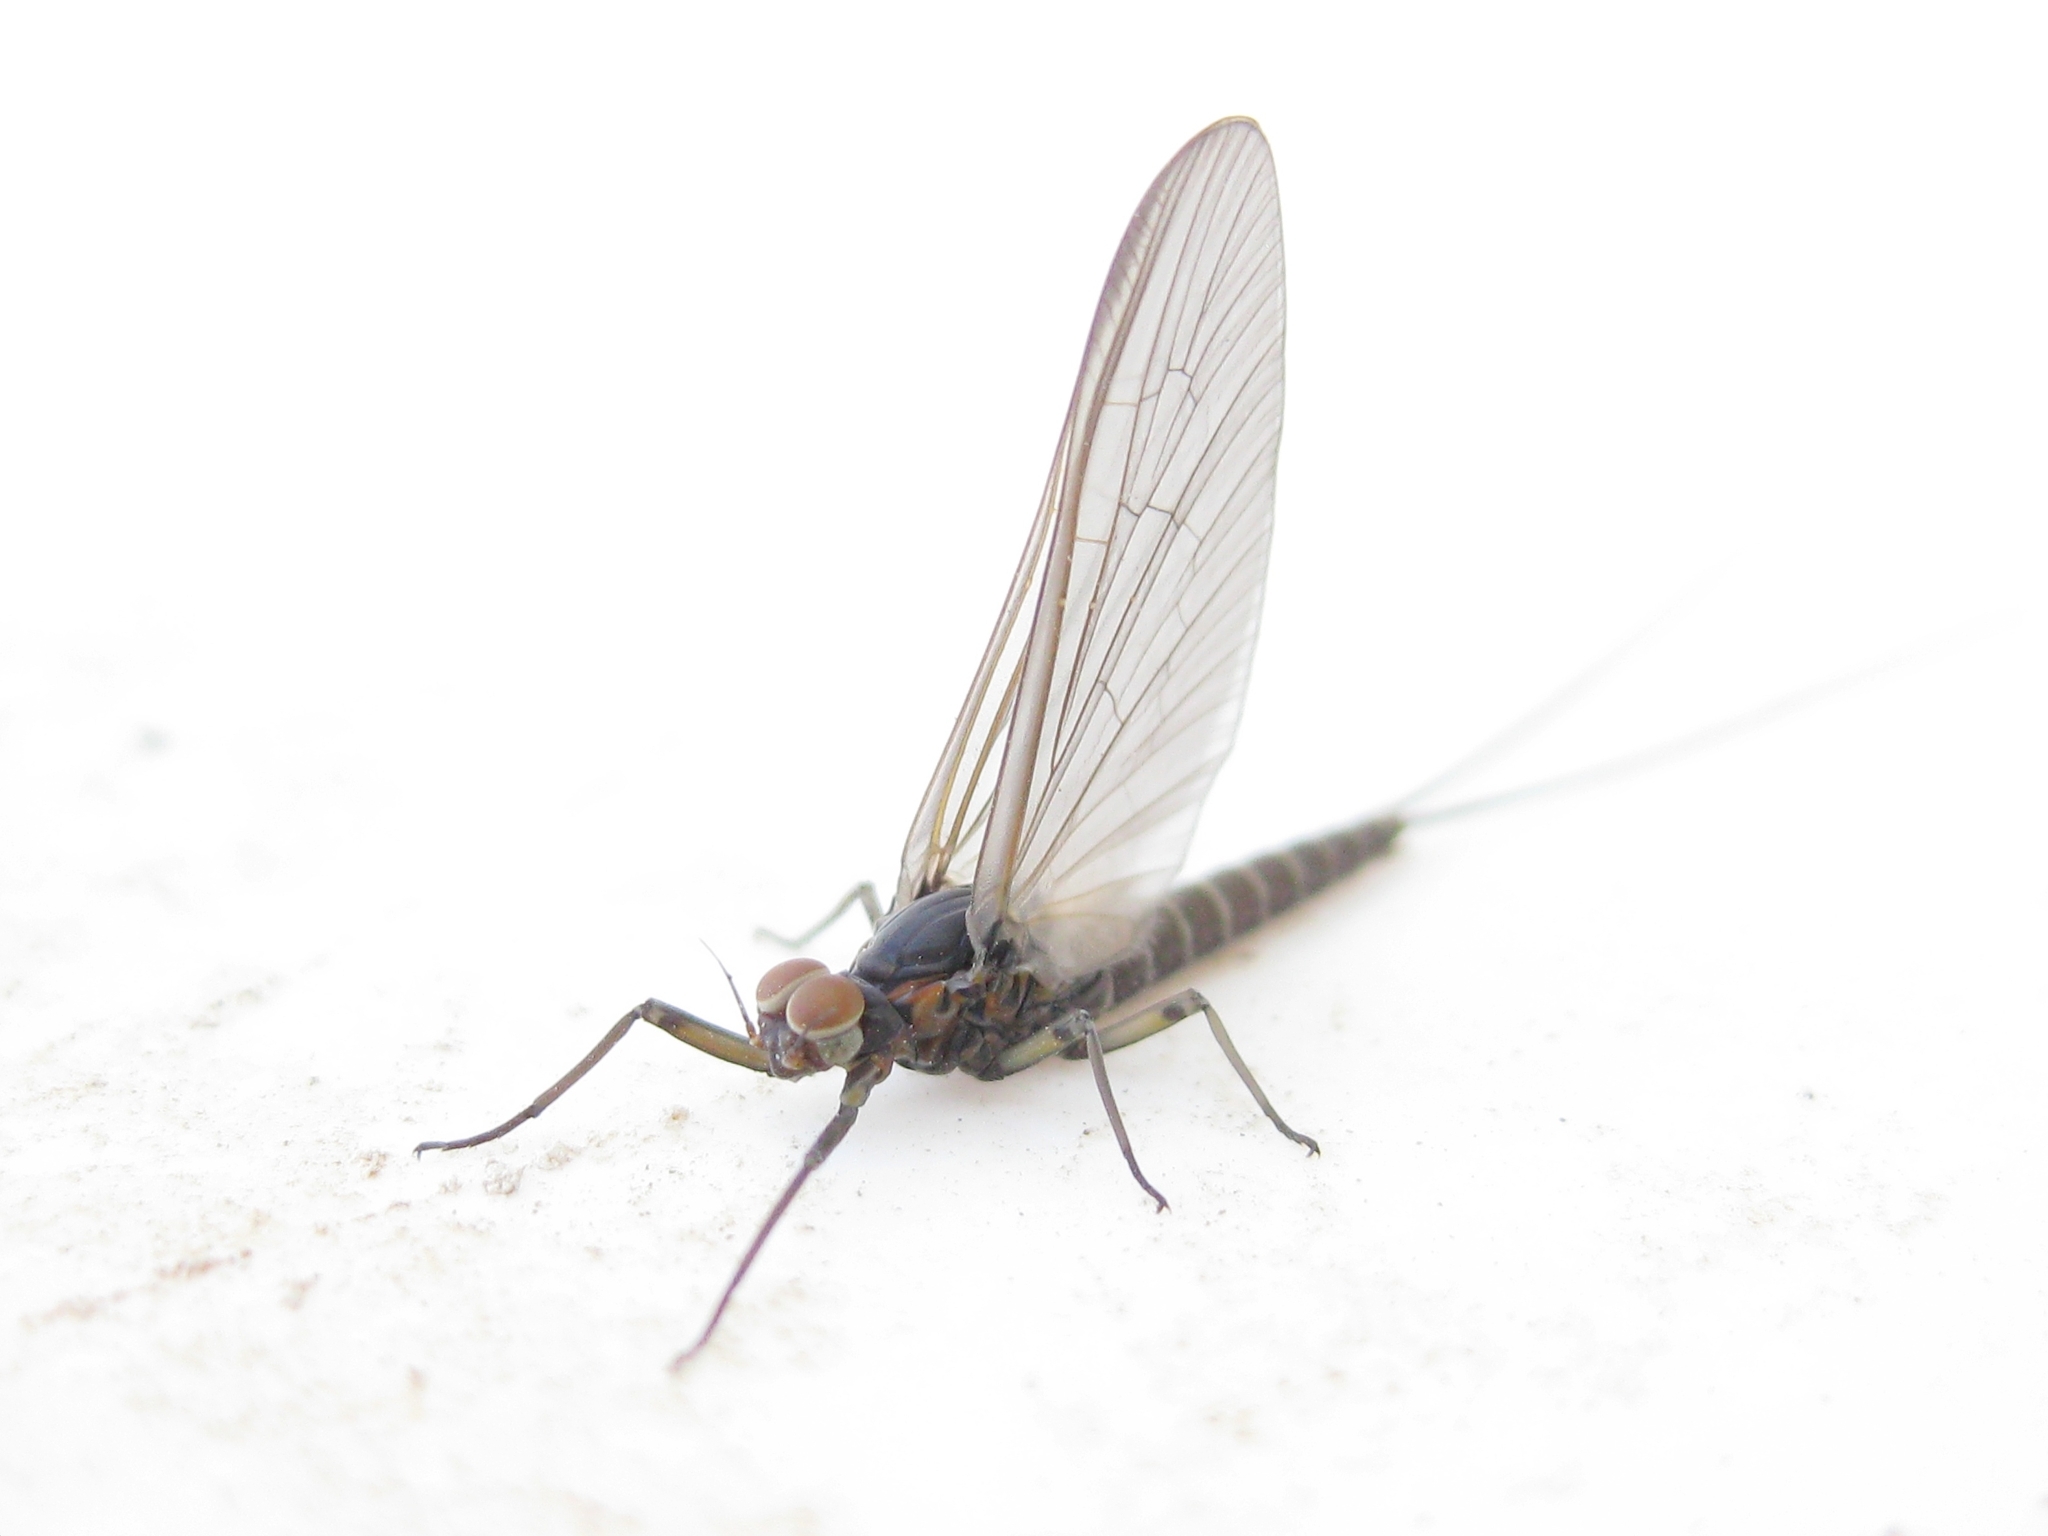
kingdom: Animalia
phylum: Arthropoda
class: Insecta
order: Ephemeroptera
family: Baetidae
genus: Baetis
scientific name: Baetis
